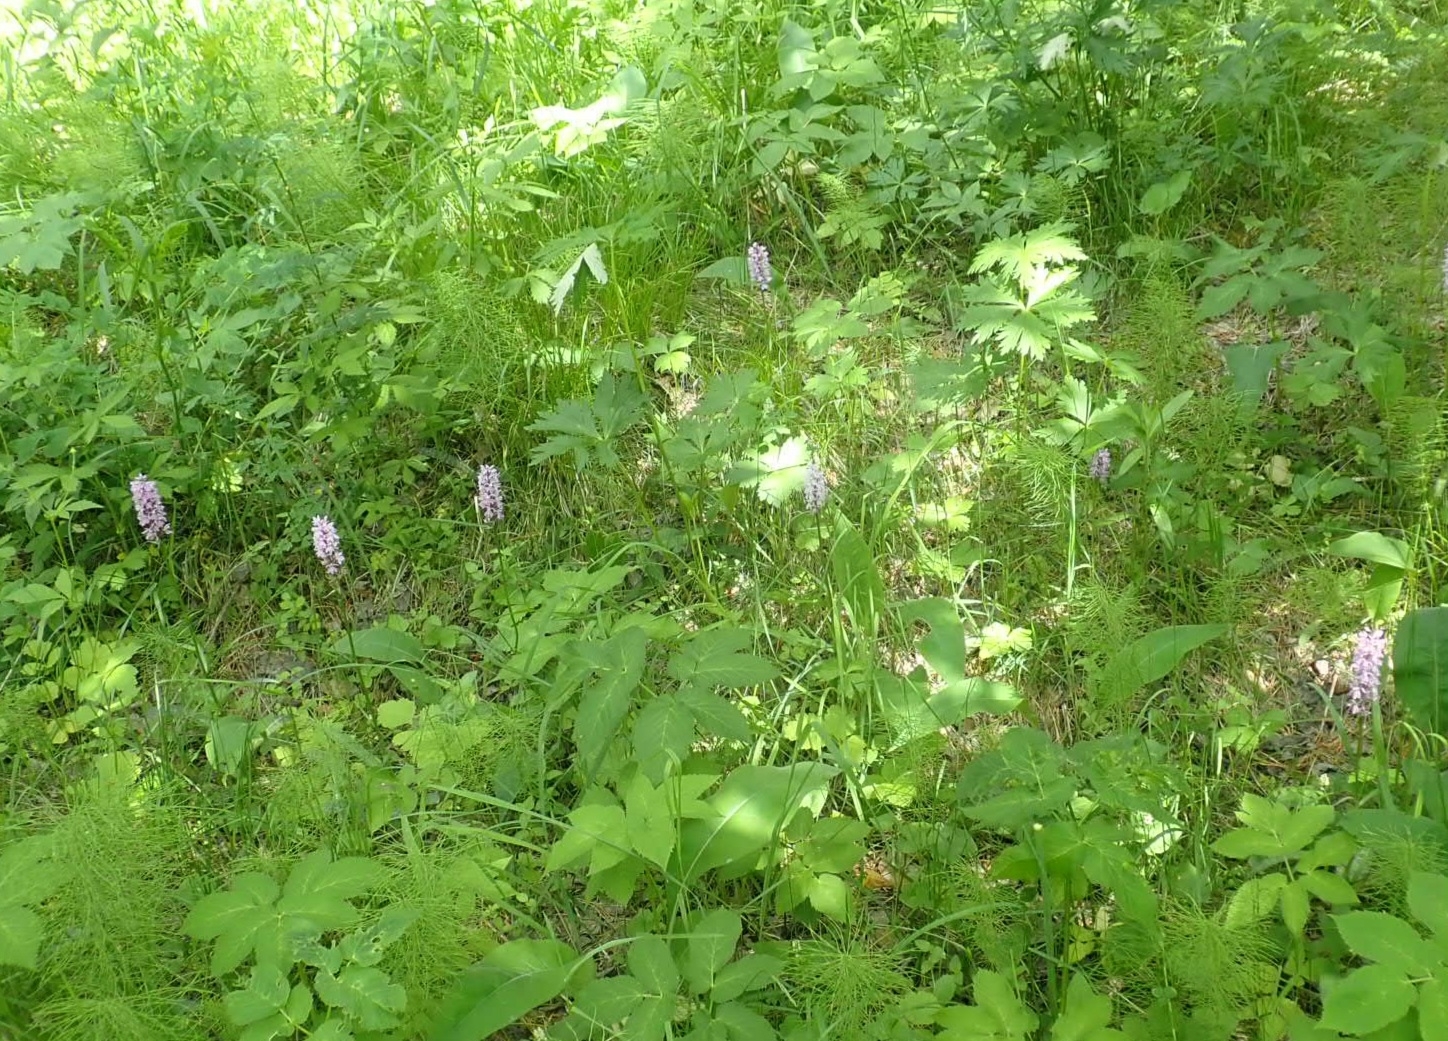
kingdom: Plantae
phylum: Tracheophyta
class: Liliopsida
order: Asparagales
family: Orchidaceae
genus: Dactylorhiza
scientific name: Dactylorhiza maculata
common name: Heath spotted-orchid
